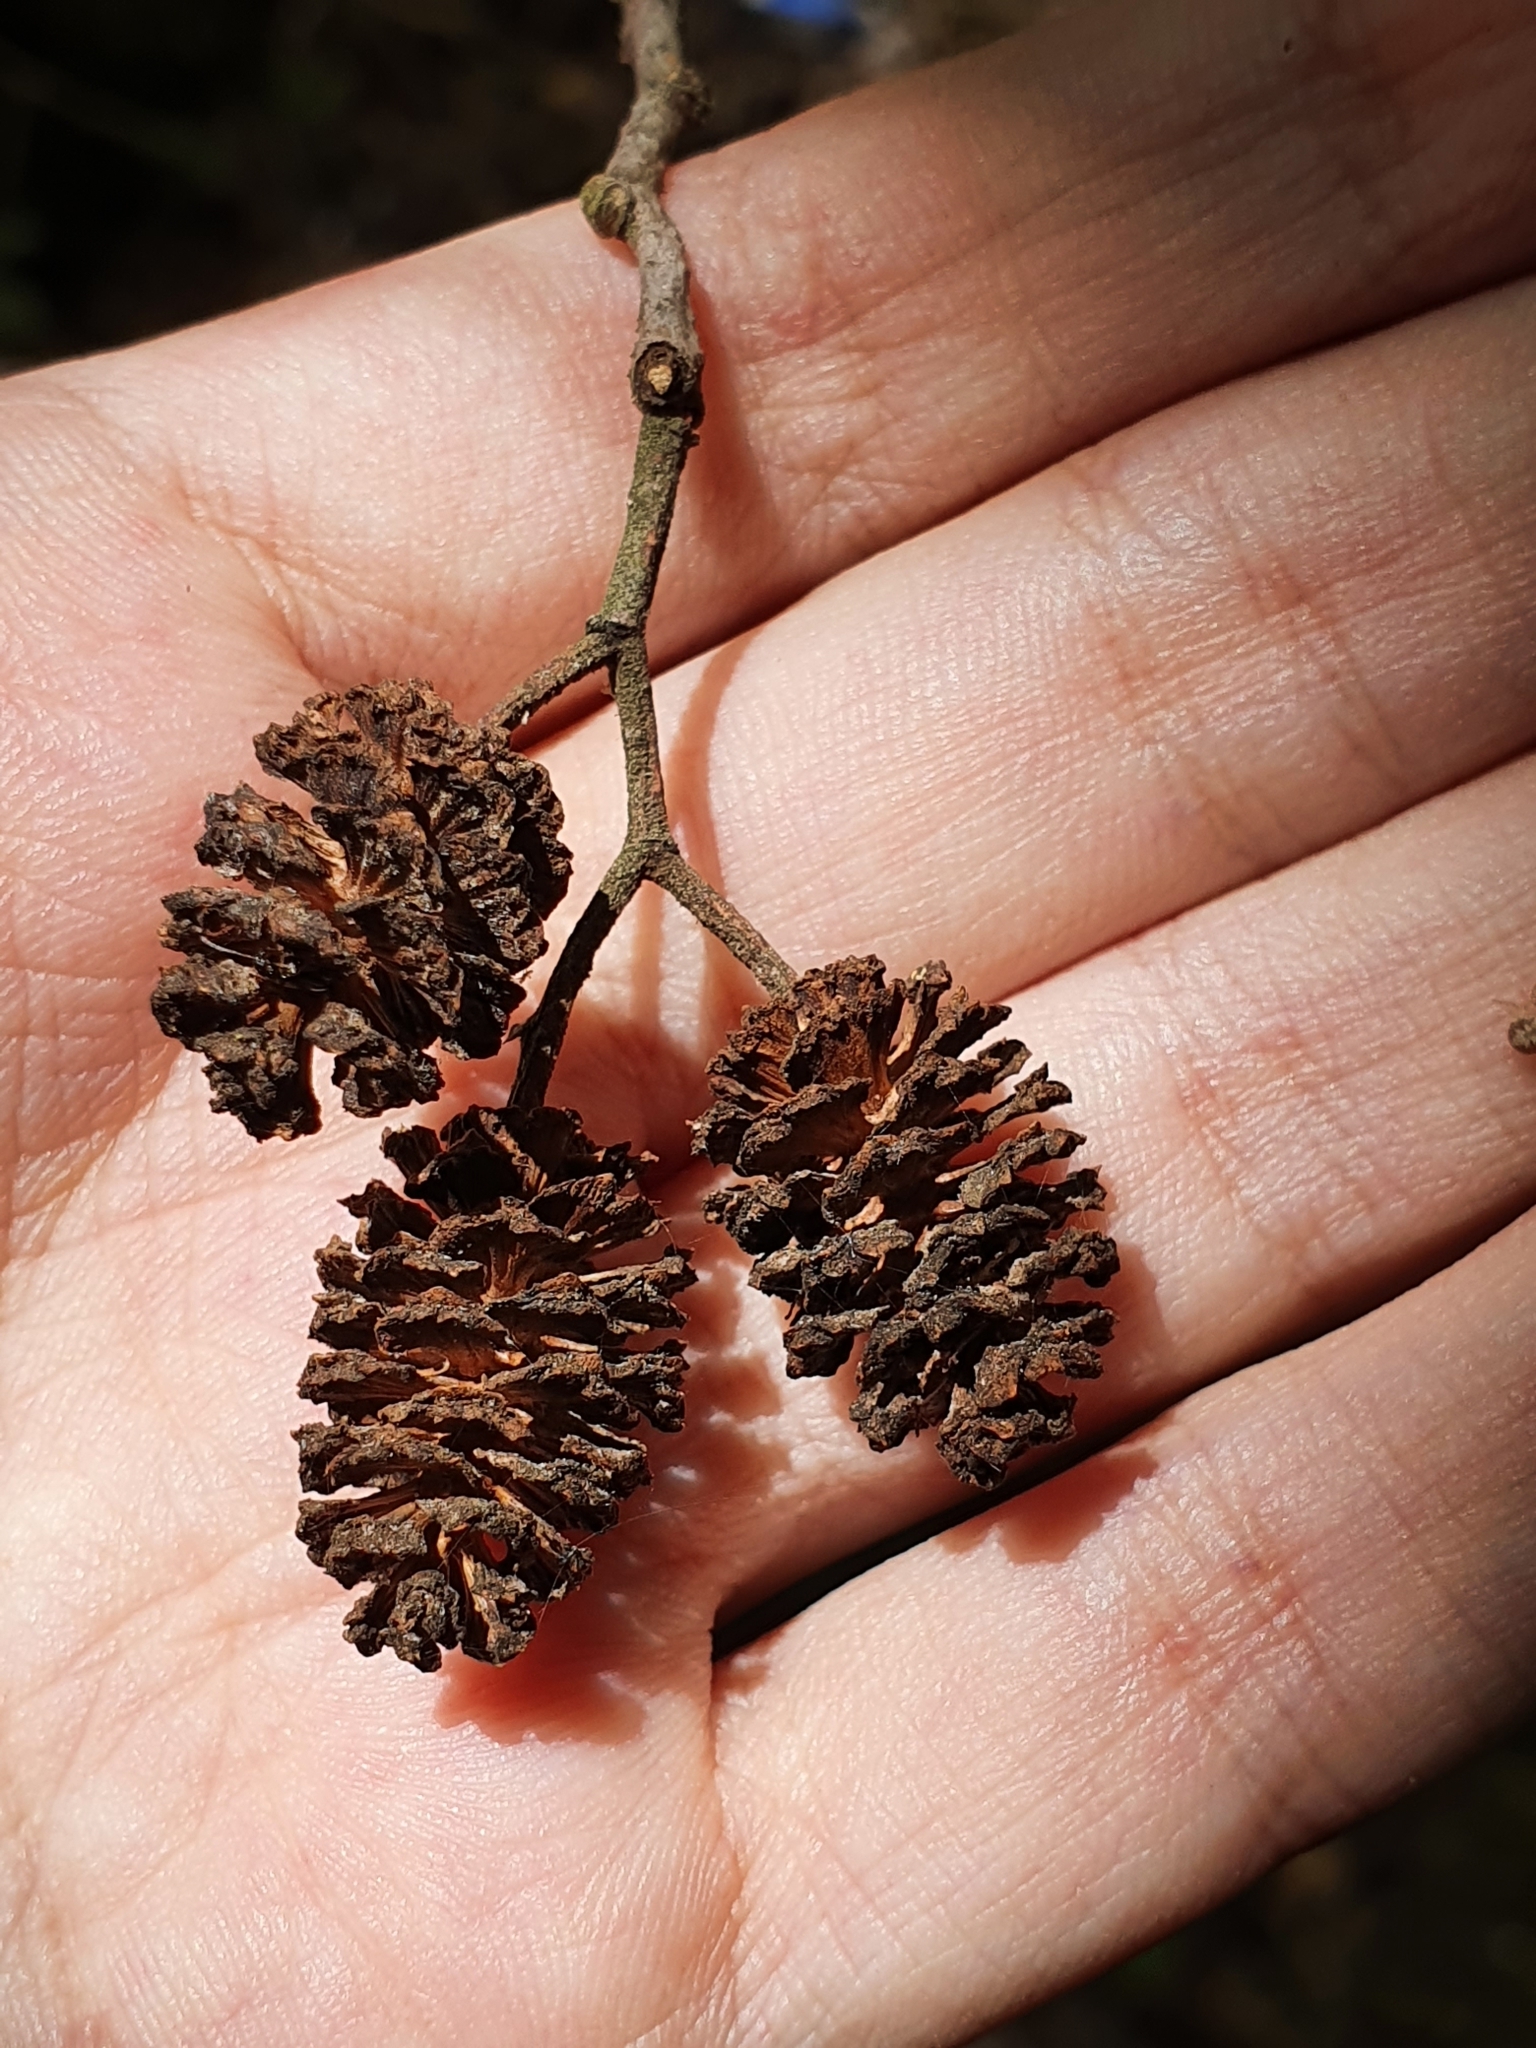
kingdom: Plantae
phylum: Tracheophyta
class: Magnoliopsida
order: Fagales
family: Betulaceae
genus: Alnus
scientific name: Alnus glutinosa
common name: Black alder
